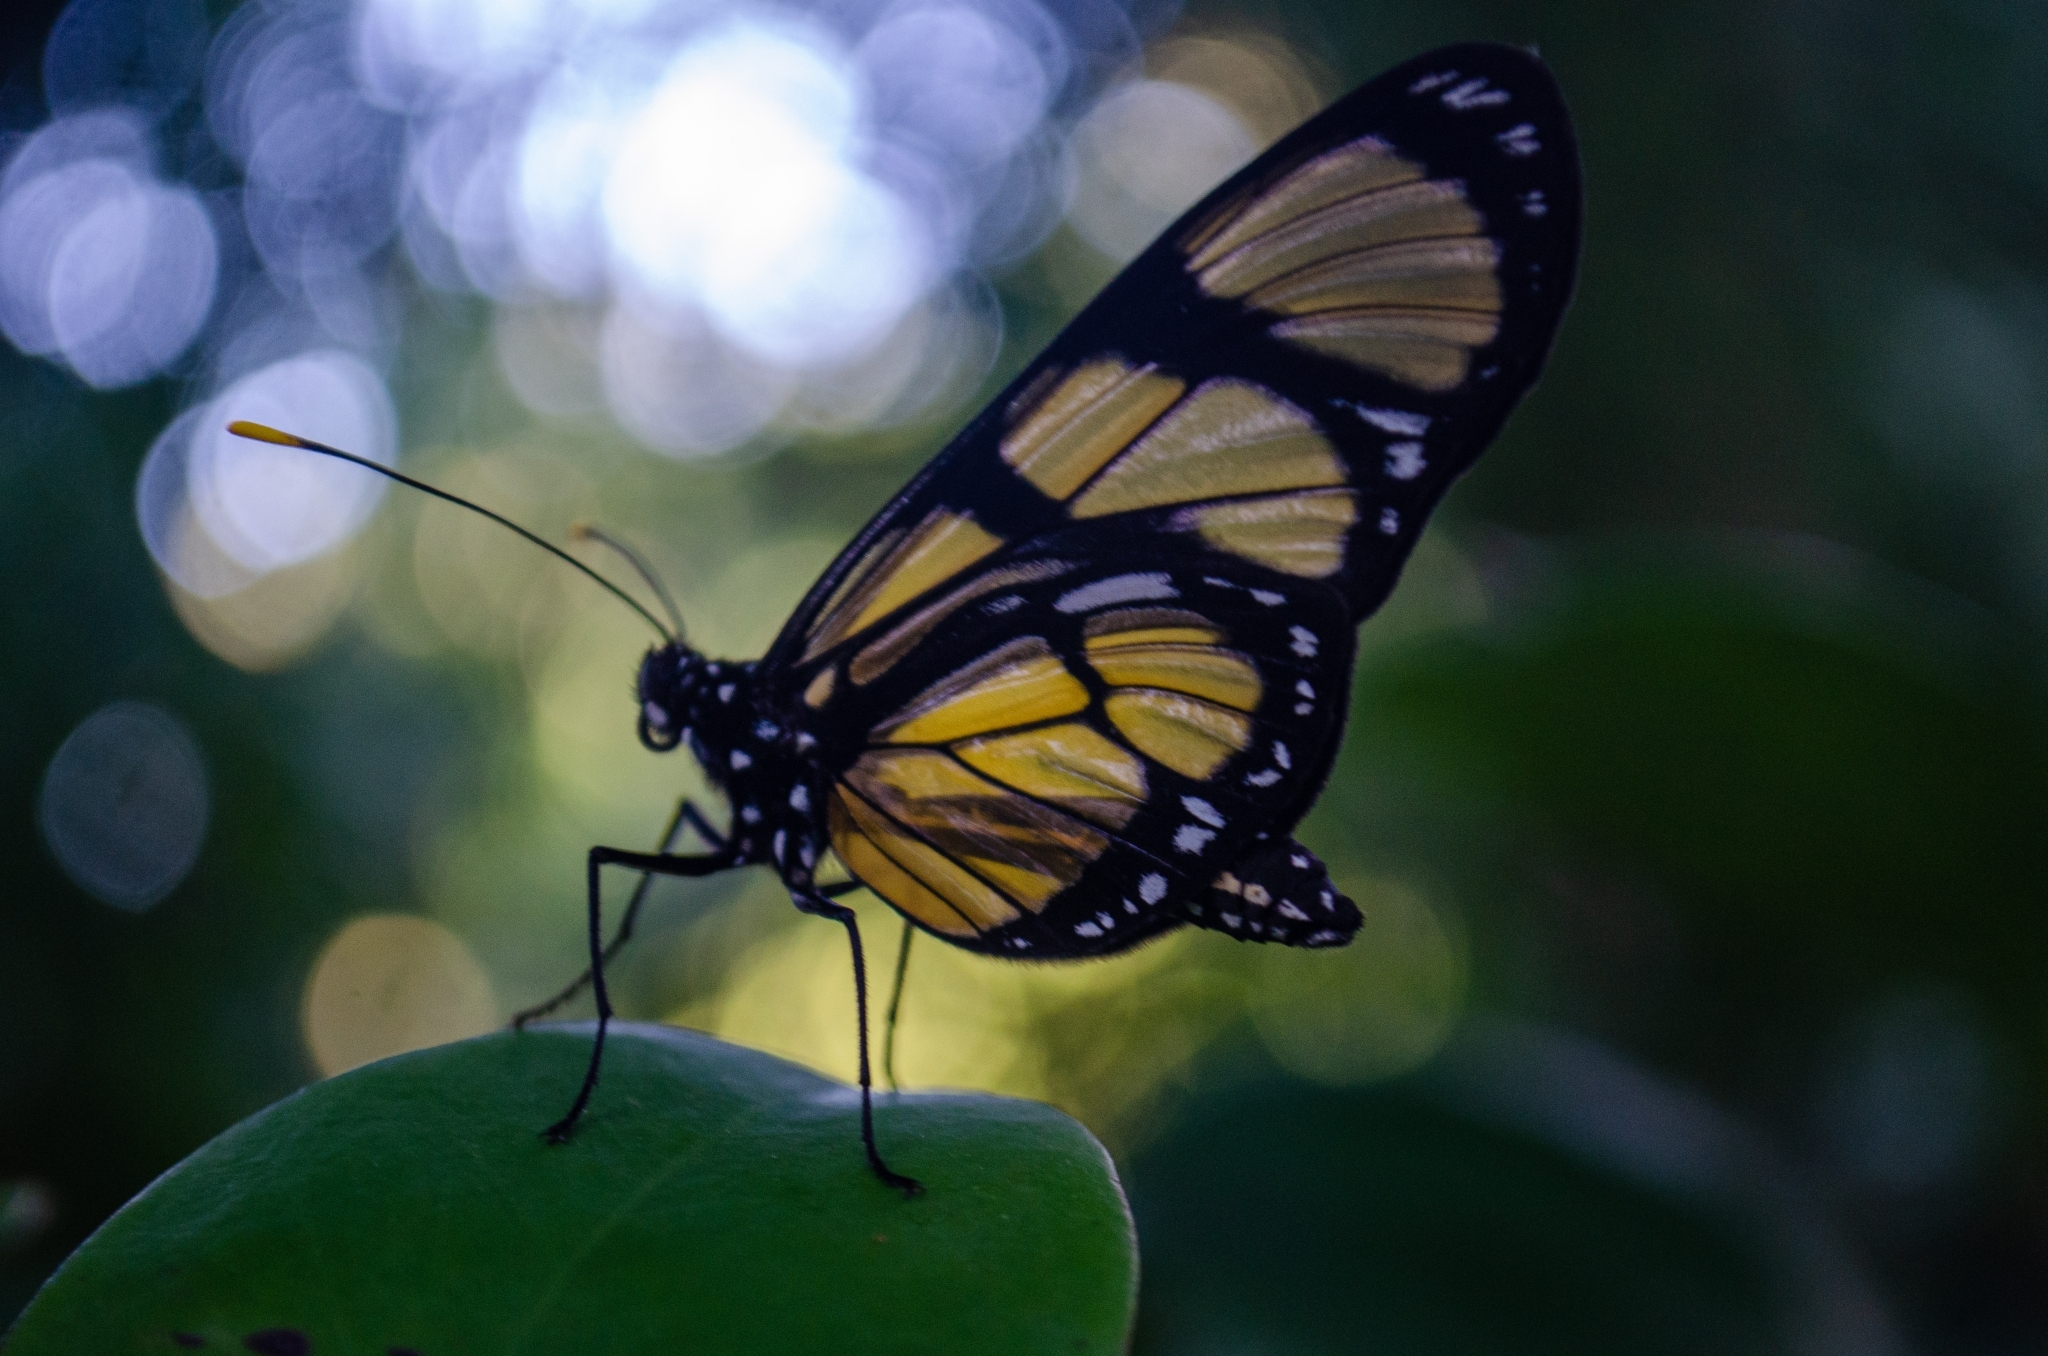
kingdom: Animalia
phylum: Arthropoda
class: Insecta
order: Lepidoptera
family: Nymphalidae
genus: Methona
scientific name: Methona themisto
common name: Themisto amberwing
